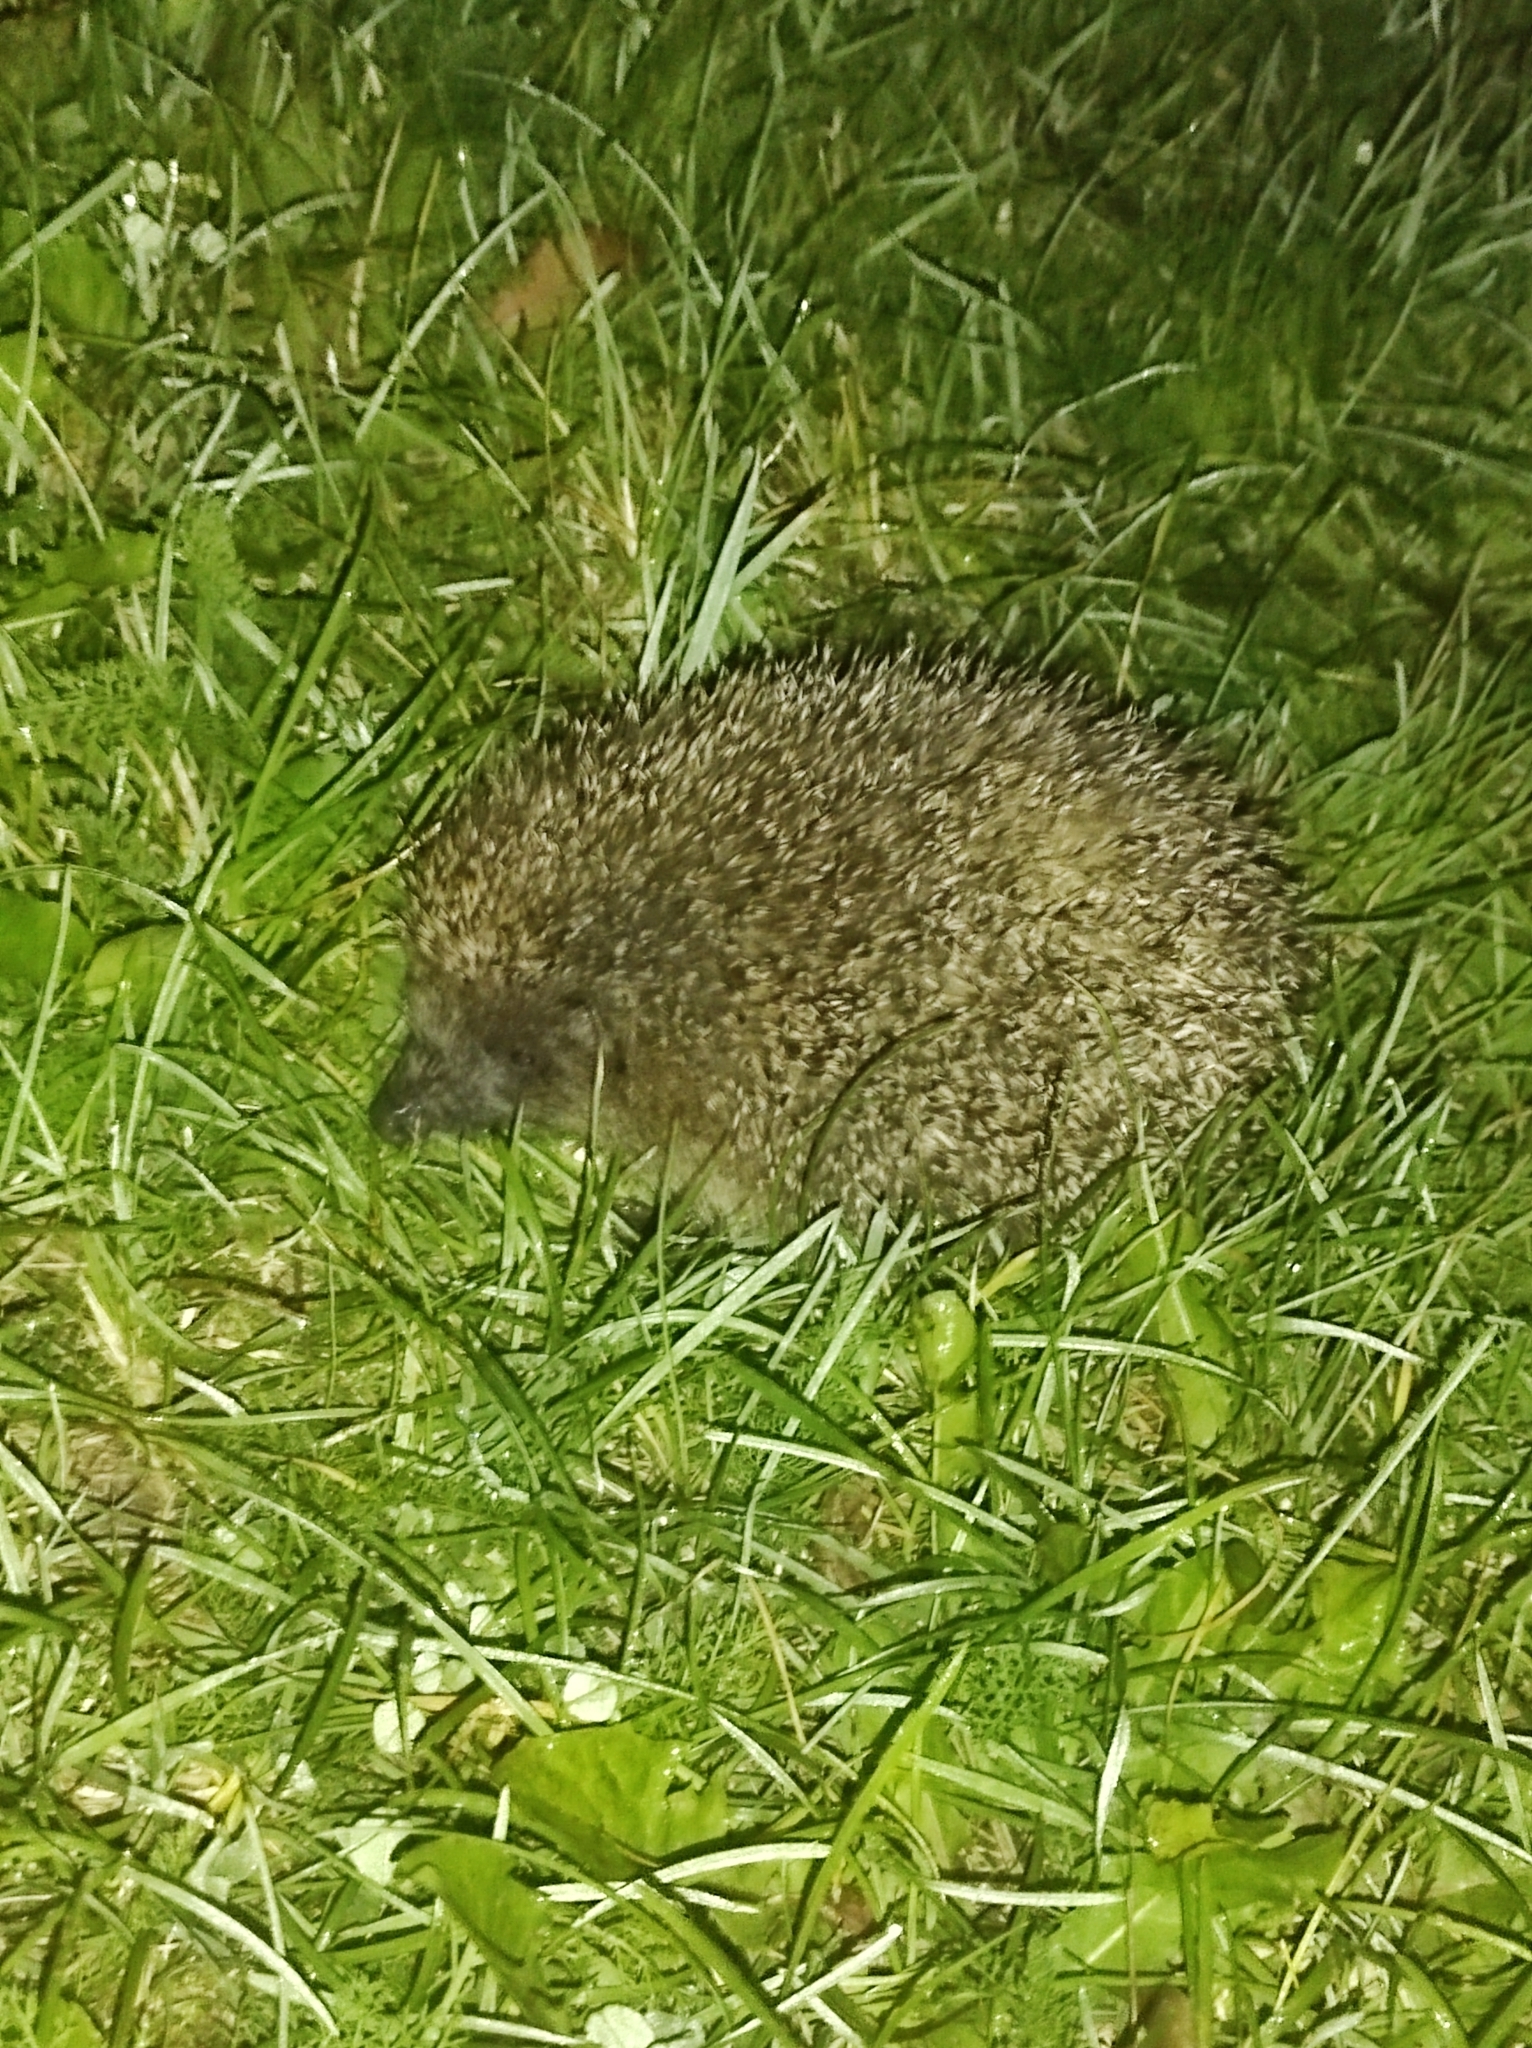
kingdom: Animalia
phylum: Chordata
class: Mammalia
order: Erinaceomorpha
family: Erinaceidae
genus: Erinaceus
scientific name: Erinaceus roumanicus
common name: Northern white-breasted hedgehog
